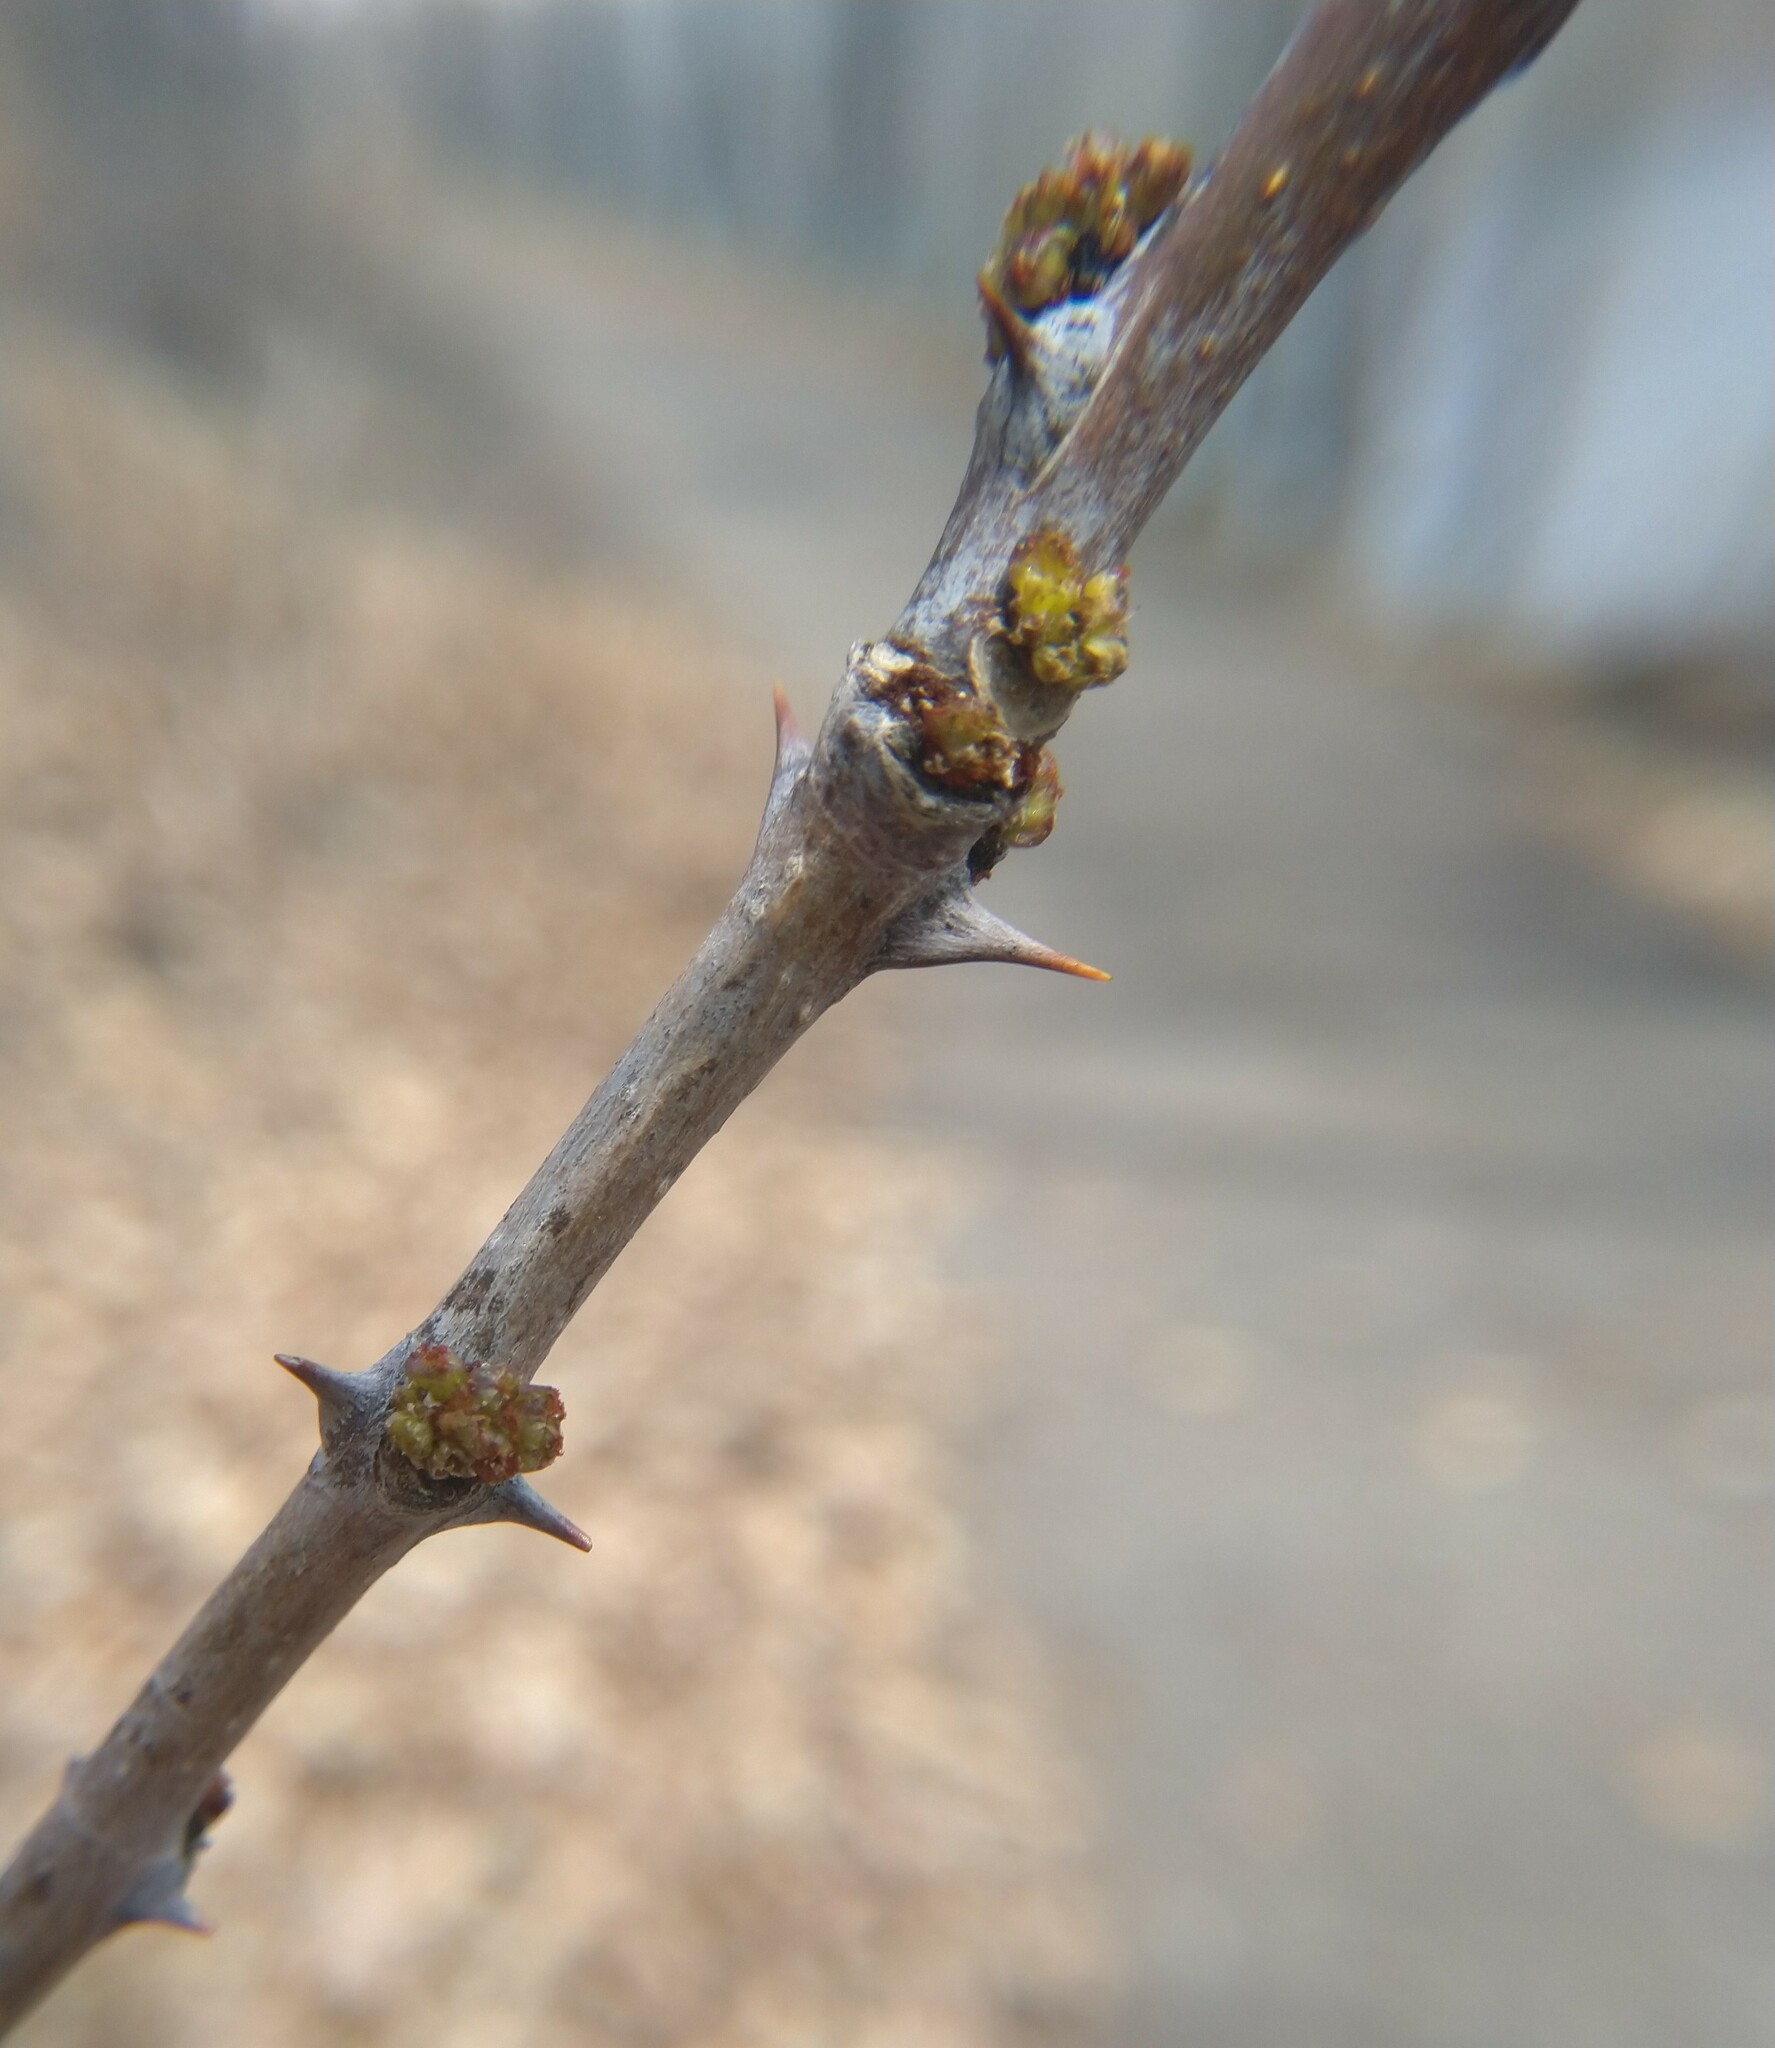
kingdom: Plantae
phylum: Tracheophyta
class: Magnoliopsida
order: Sapindales
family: Rutaceae
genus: Zanthoxylum
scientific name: Zanthoxylum americanum
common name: Northern prickly-ash
